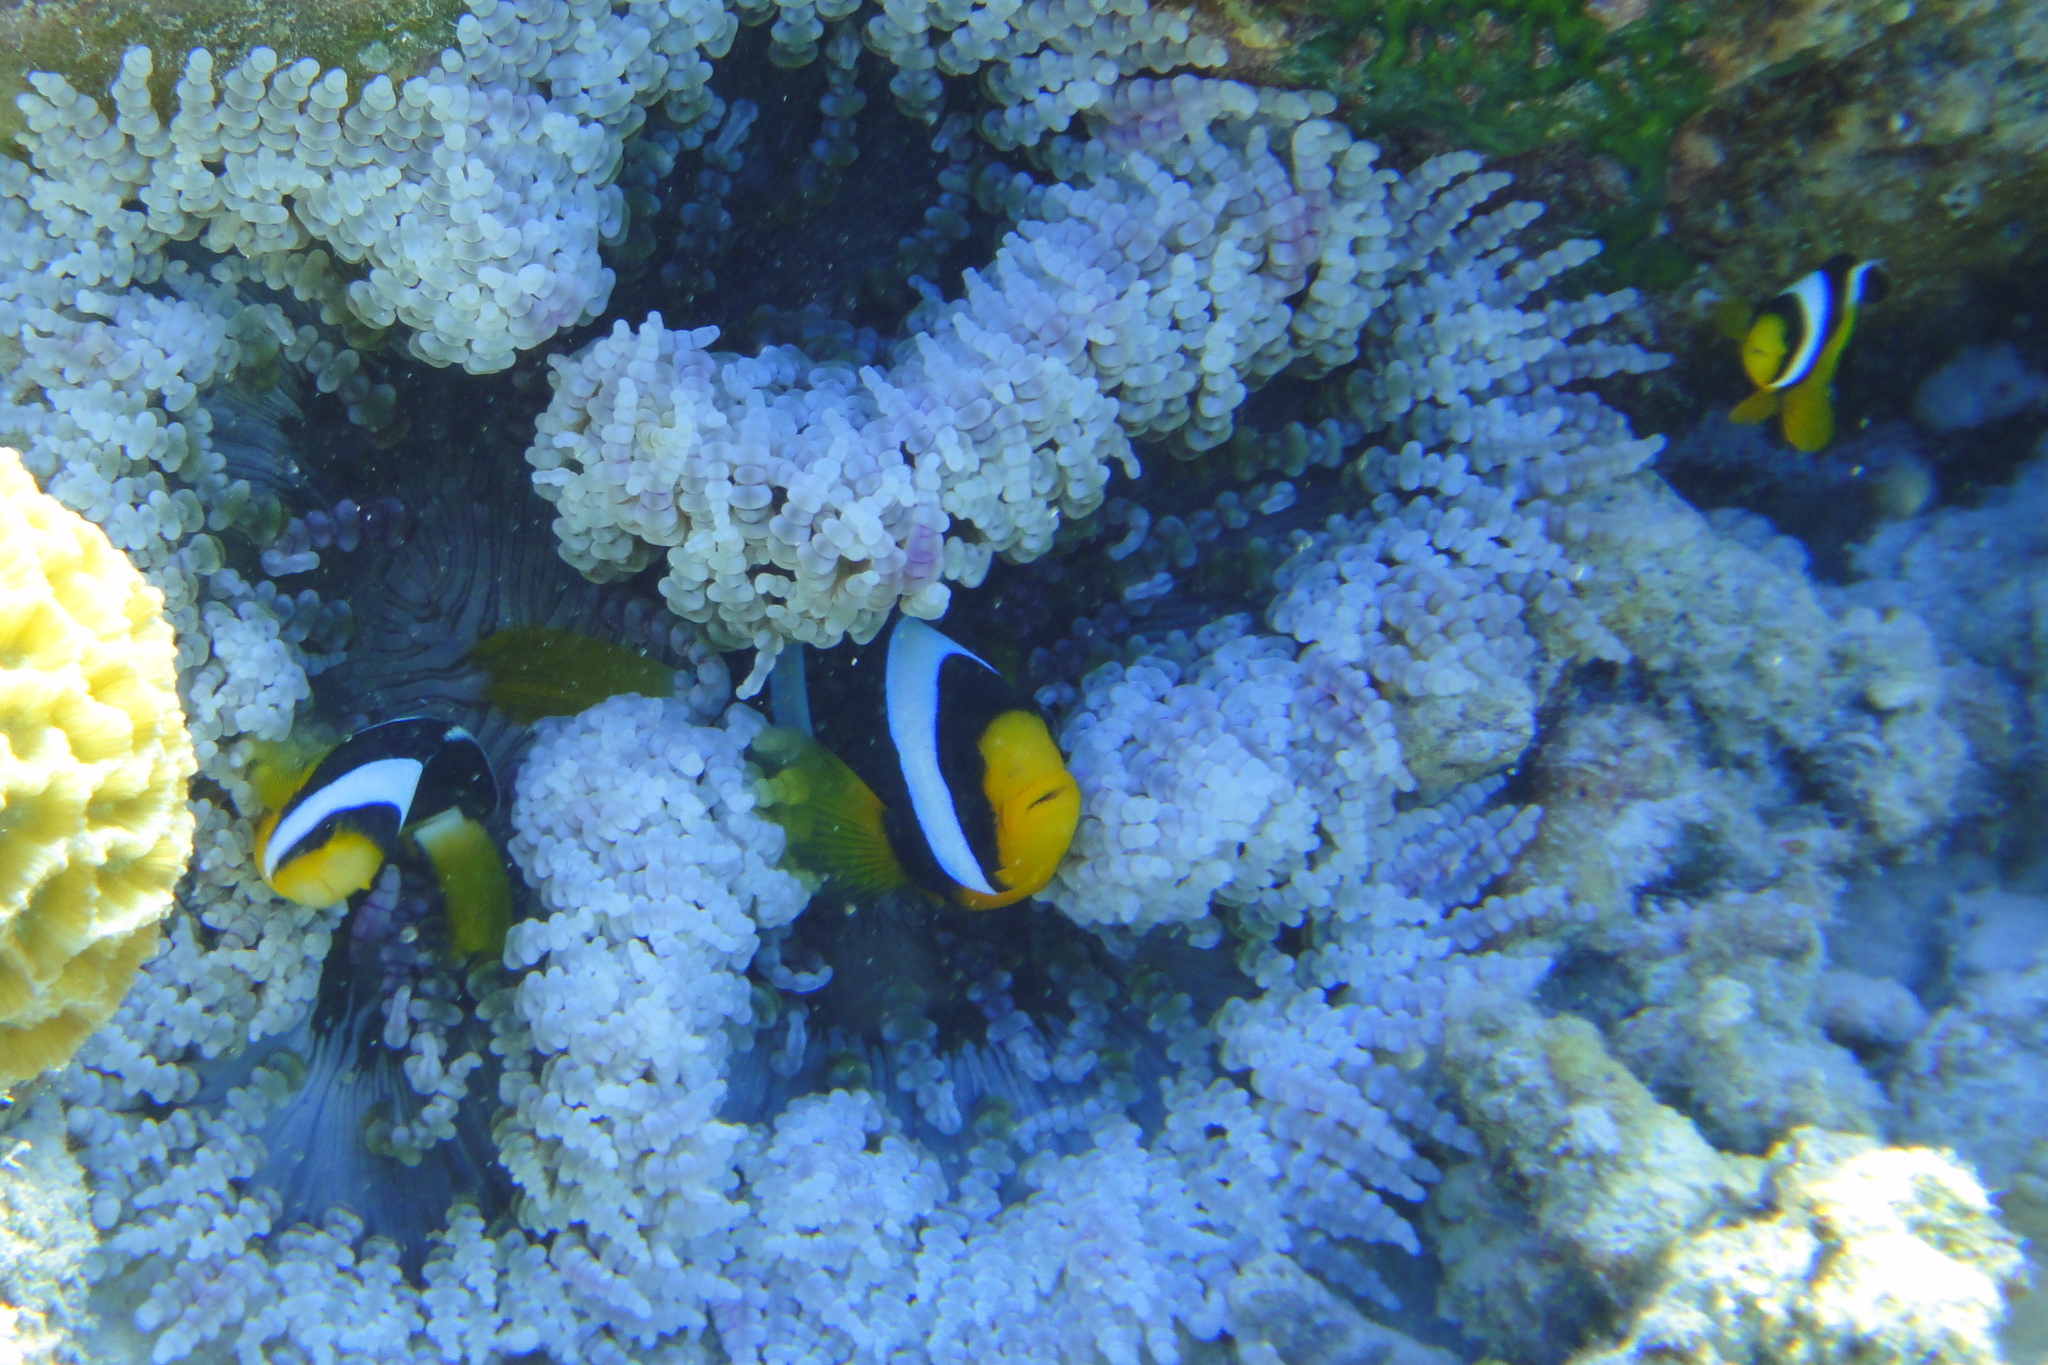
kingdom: Animalia
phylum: Chordata
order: Perciformes
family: Pomacentridae
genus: Amphiprion
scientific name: Amphiprion clarkii
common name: Clark's anemonefish
